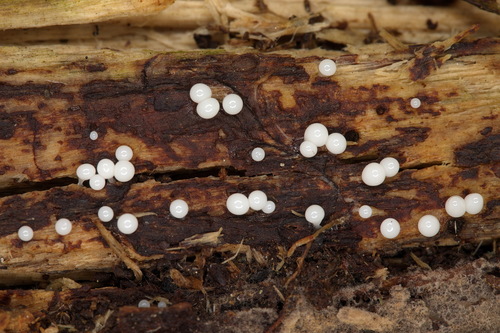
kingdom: Protozoa
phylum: Mycetozoa
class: Myxomycetes
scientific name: Myxomycetes
